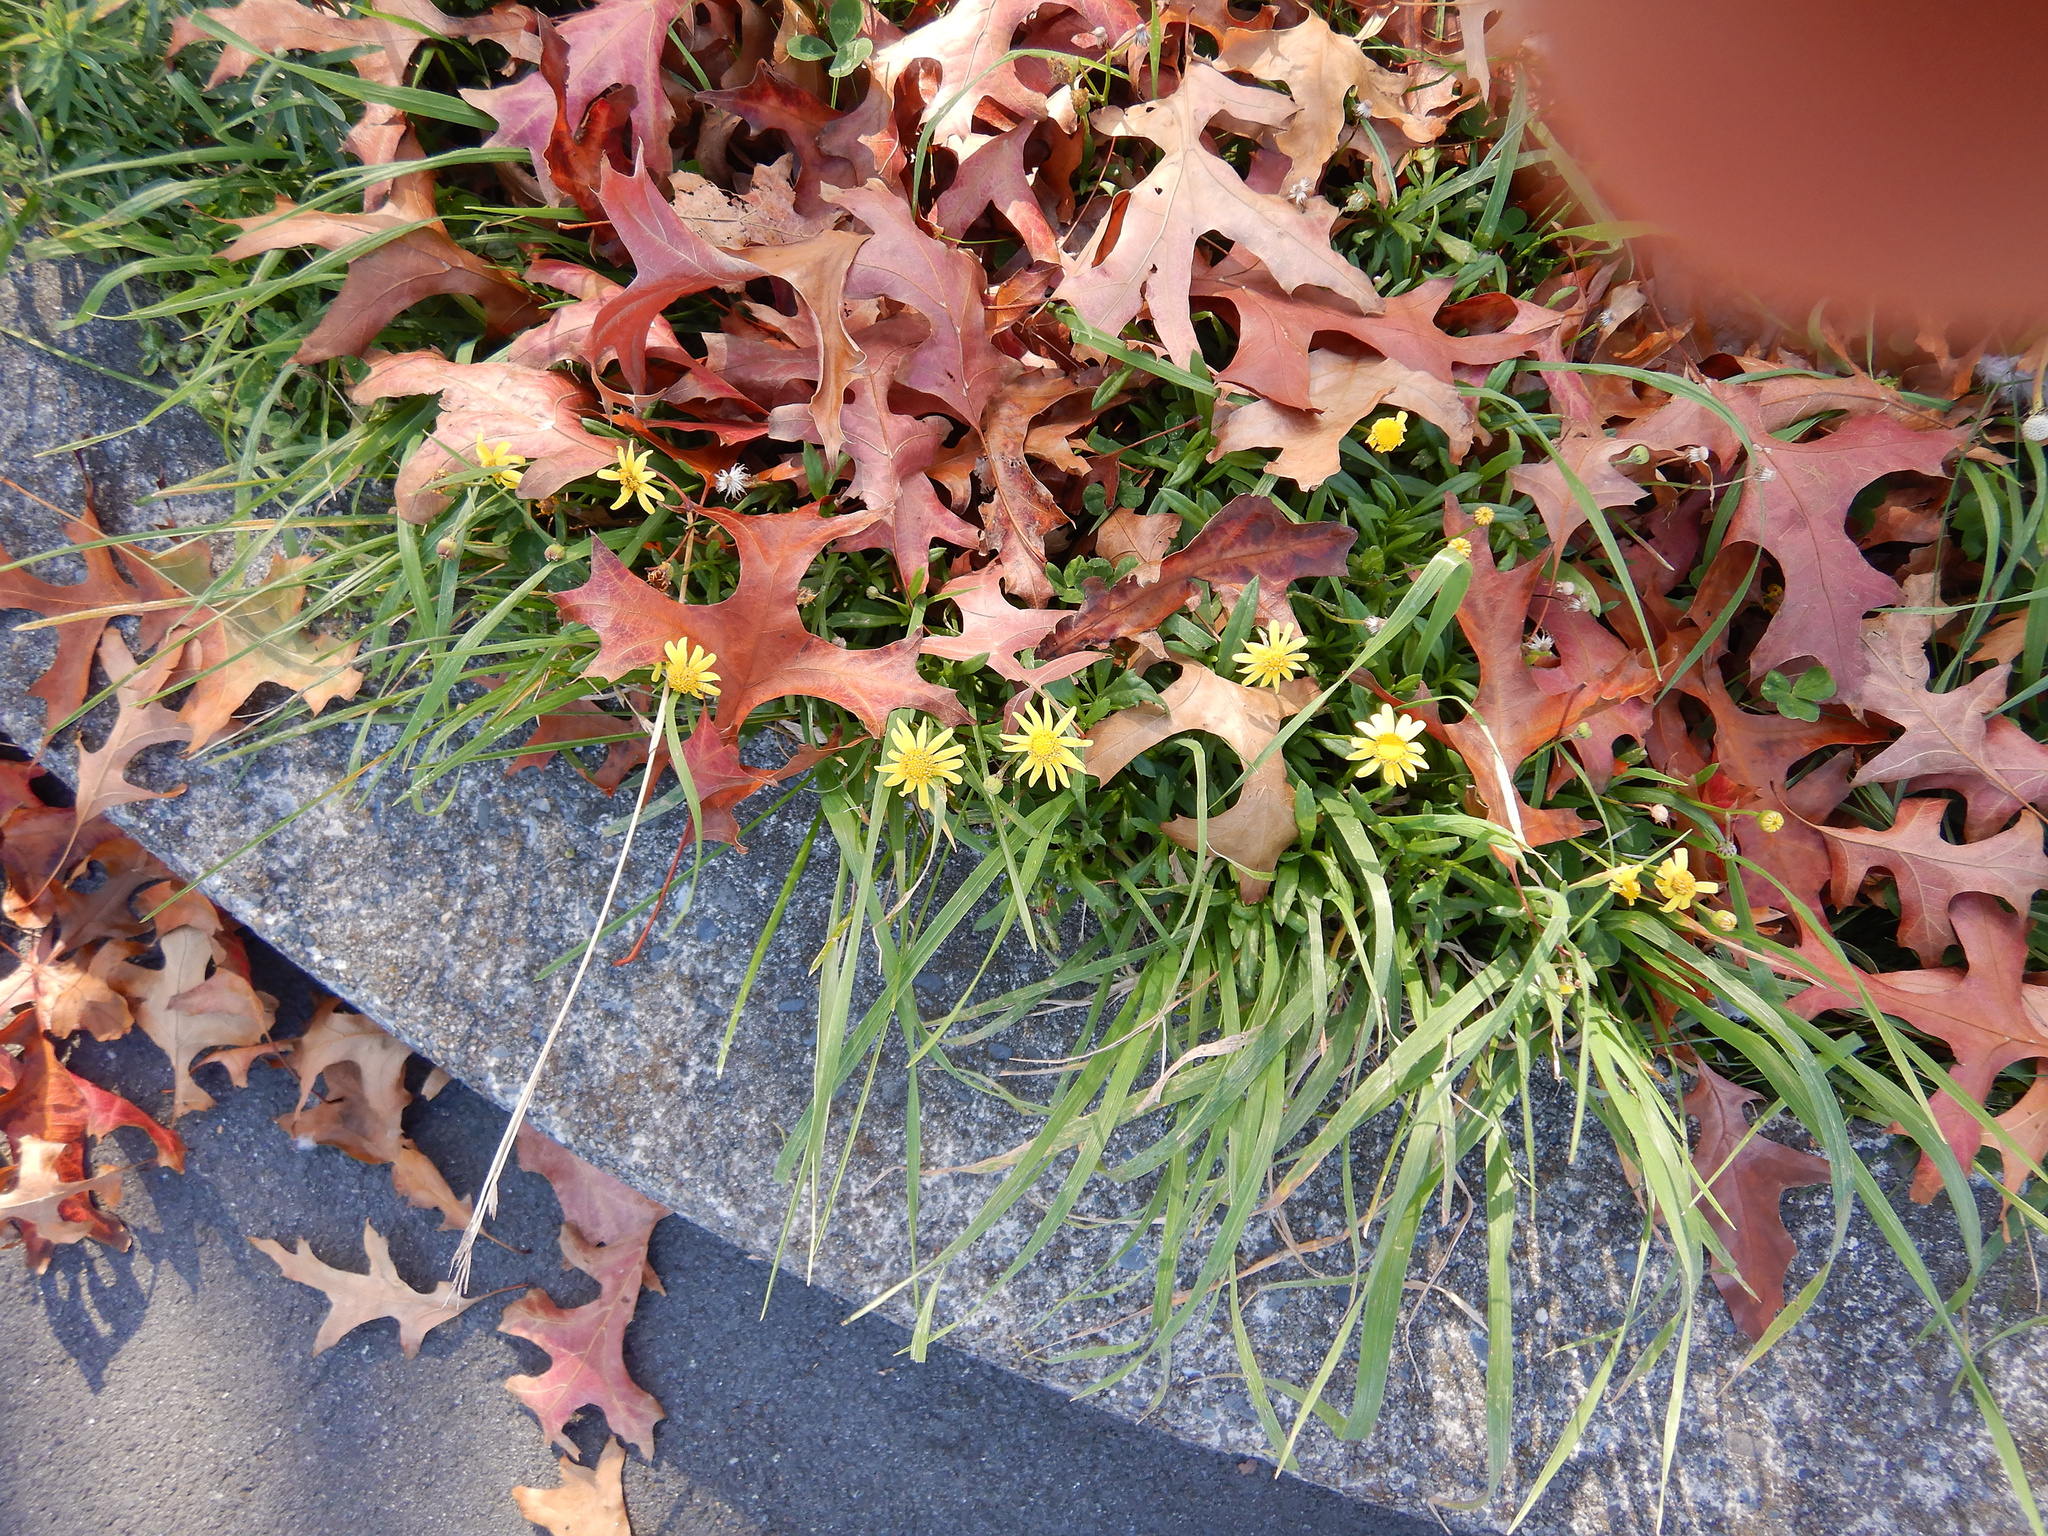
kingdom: Plantae
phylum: Tracheophyta
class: Magnoliopsida
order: Asterales
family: Asteraceae
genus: Senecio
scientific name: Senecio skirrhodon
